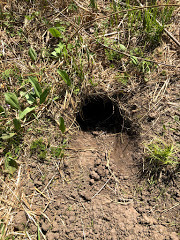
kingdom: Animalia
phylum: Chordata
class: Mammalia
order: Rodentia
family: Sciuridae
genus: Marmota
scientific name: Marmota kastschenkoi
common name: Forest steppe marmot
